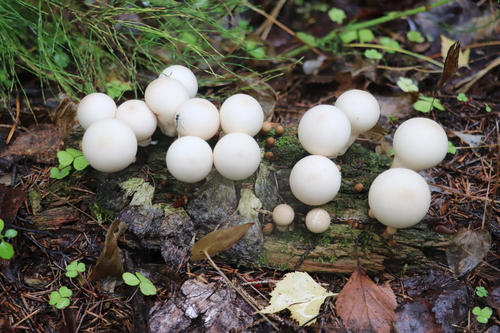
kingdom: Fungi
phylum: Basidiomycota
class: Agaricomycetes
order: Agaricales
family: Lycoperdaceae
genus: Apioperdon
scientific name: Apioperdon pyriforme
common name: Pear-shaped puffball
